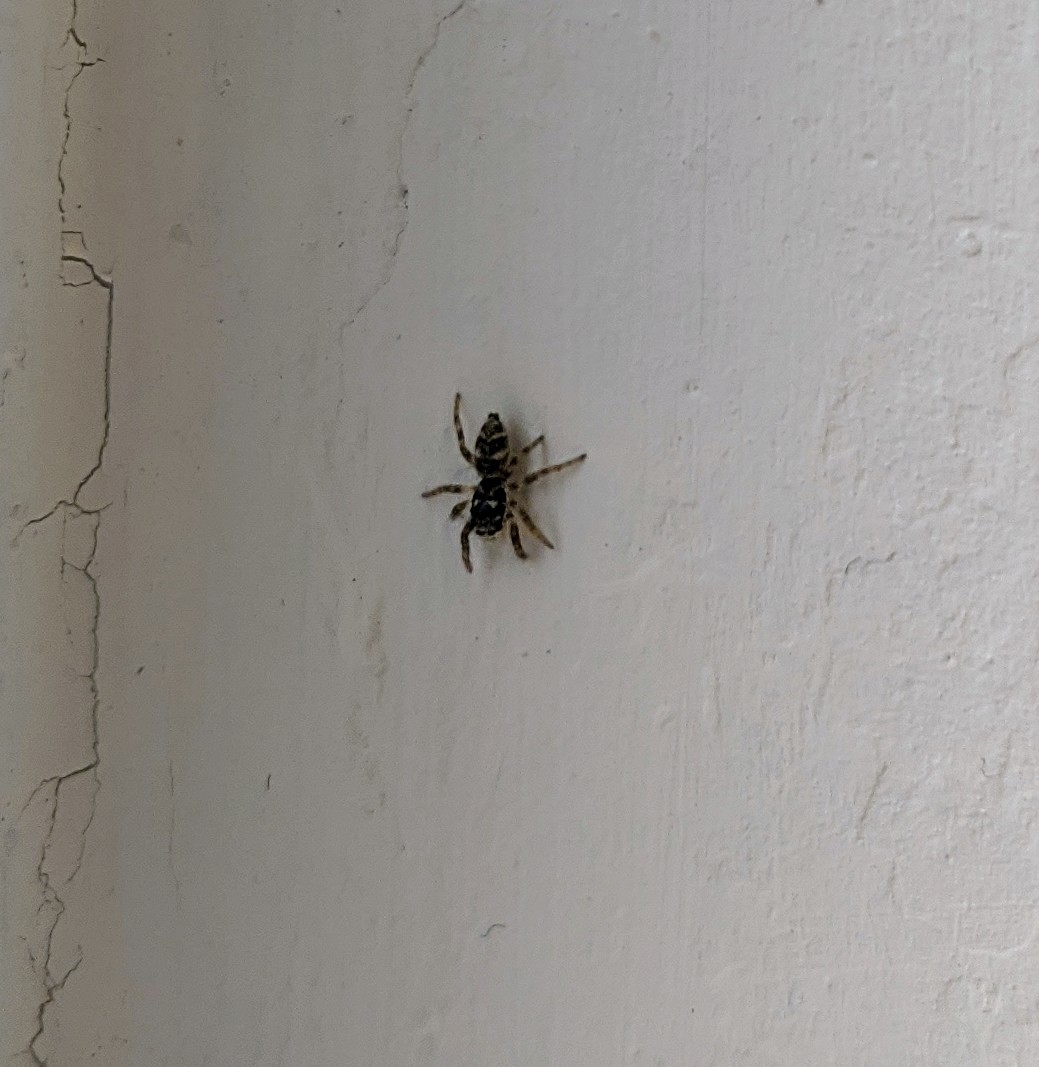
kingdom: Animalia
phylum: Arthropoda
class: Arachnida
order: Araneae
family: Salticidae
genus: Salticus
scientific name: Salticus scenicus
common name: Zebra jumper
